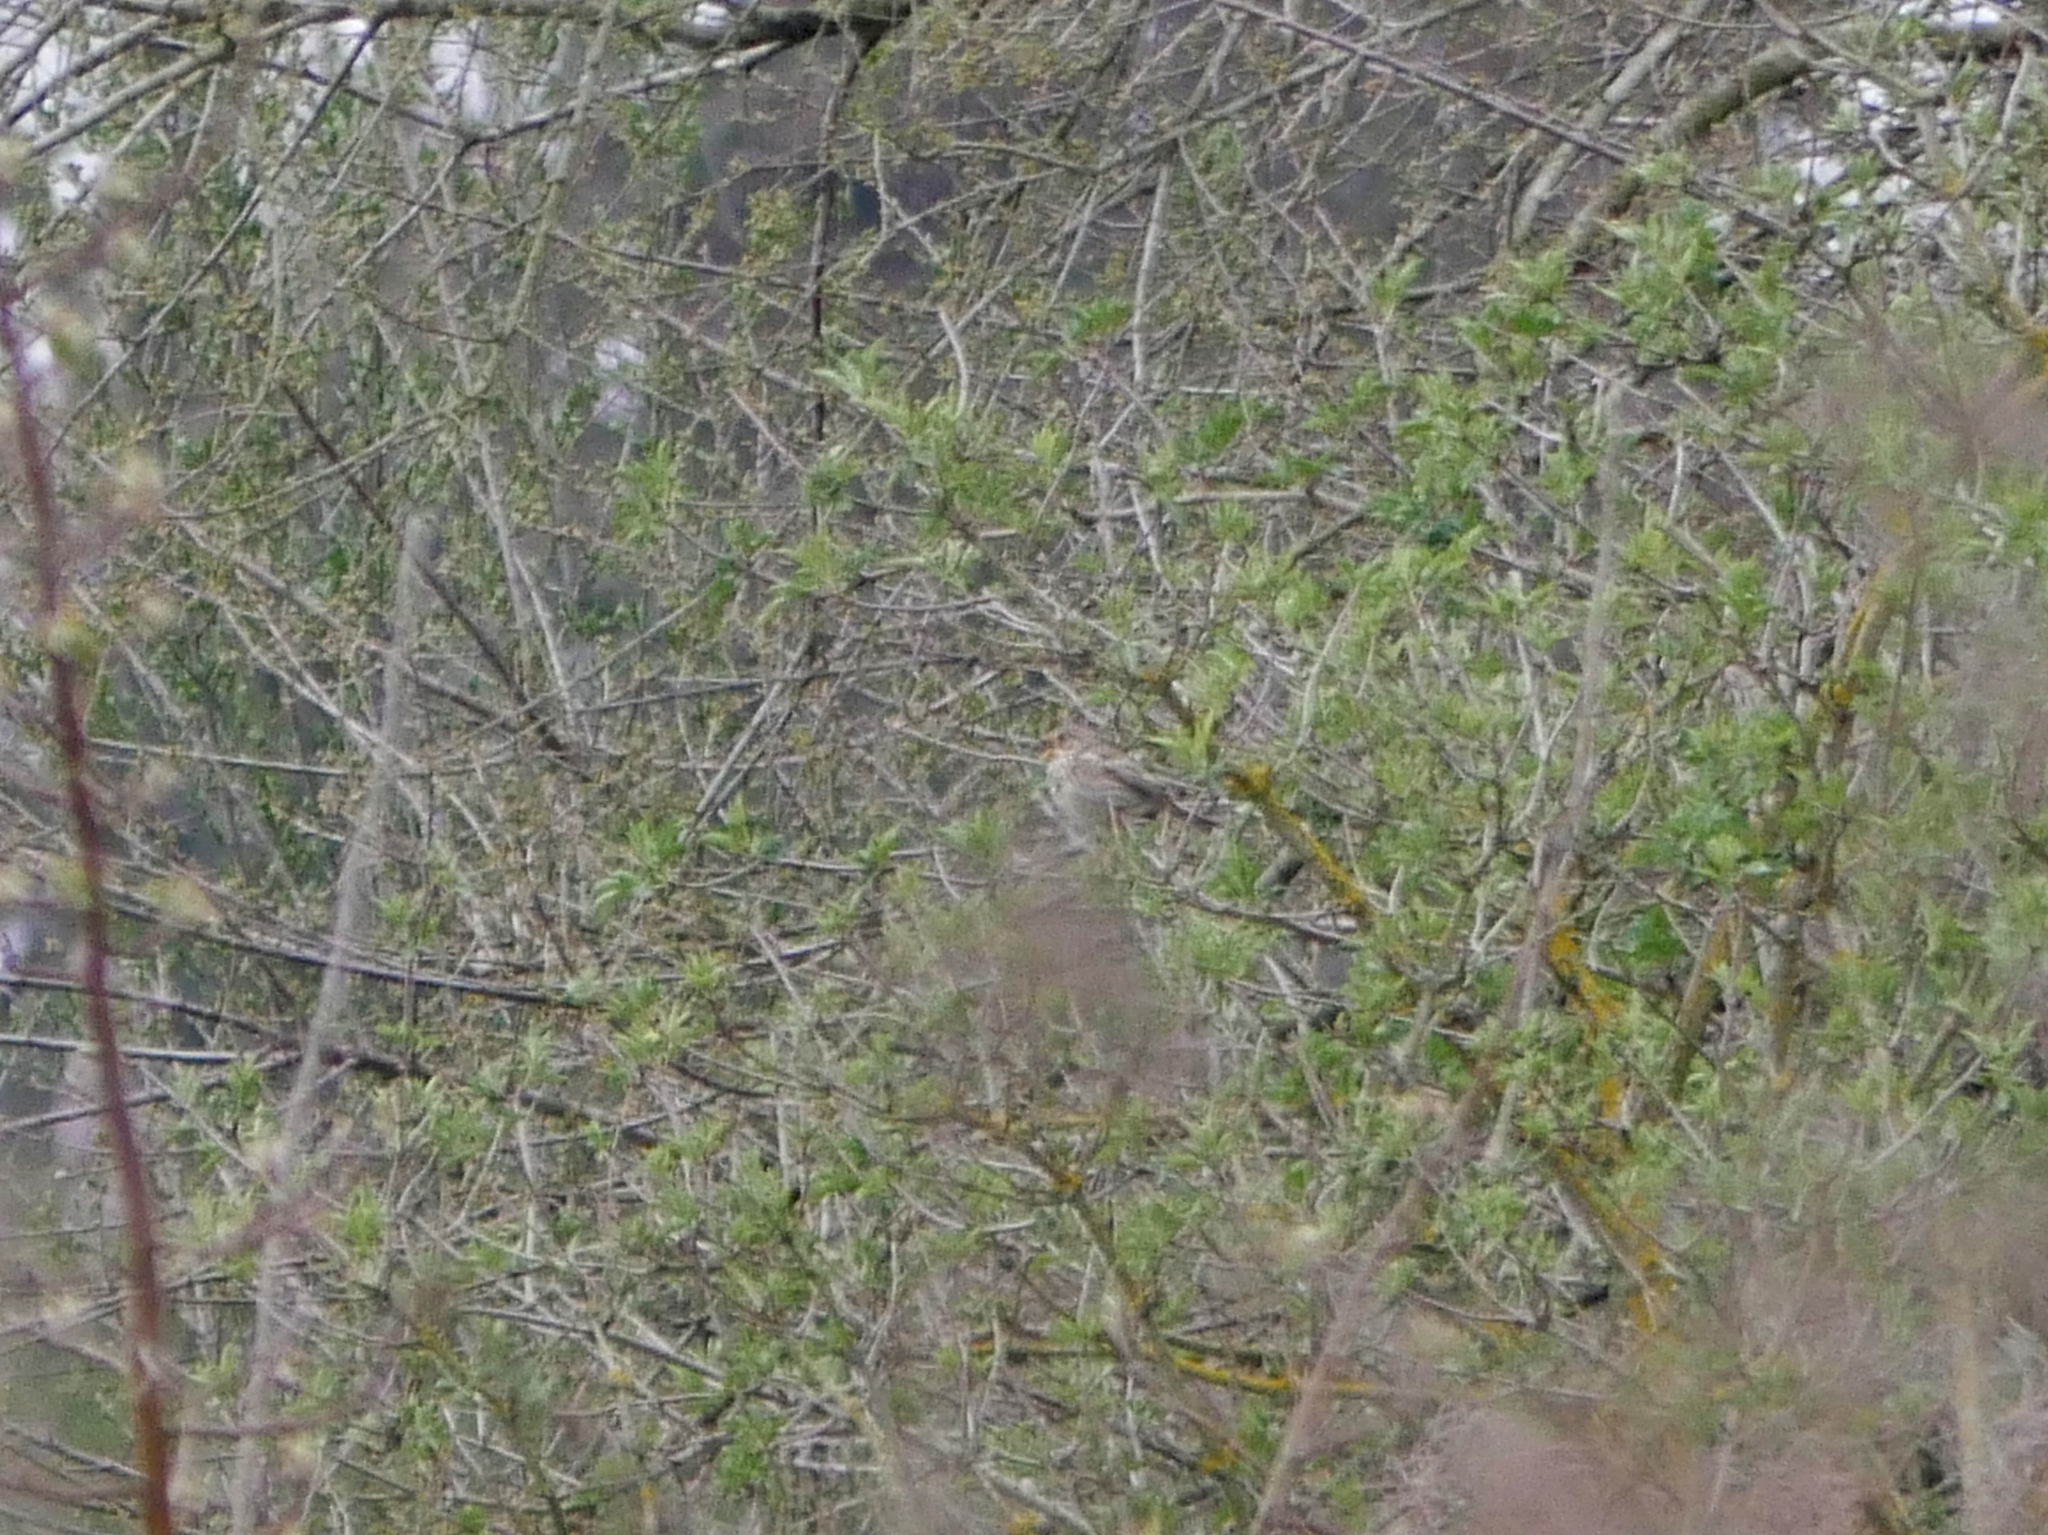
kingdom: Animalia
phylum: Chordata
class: Aves
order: Passeriformes
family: Emberizidae
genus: Emberiza
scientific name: Emberiza calandra
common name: Corn bunting
